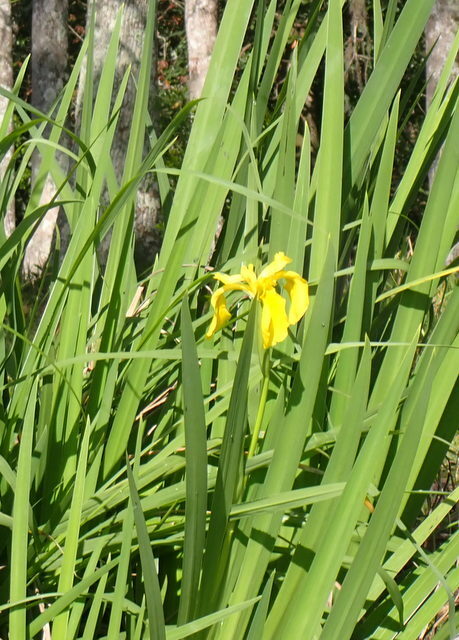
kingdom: Plantae
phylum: Tracheophyta
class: Liliopsida
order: Asparagales
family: Iridaceae
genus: Iris
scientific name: Iris pseudacorus
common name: Yellow flag
